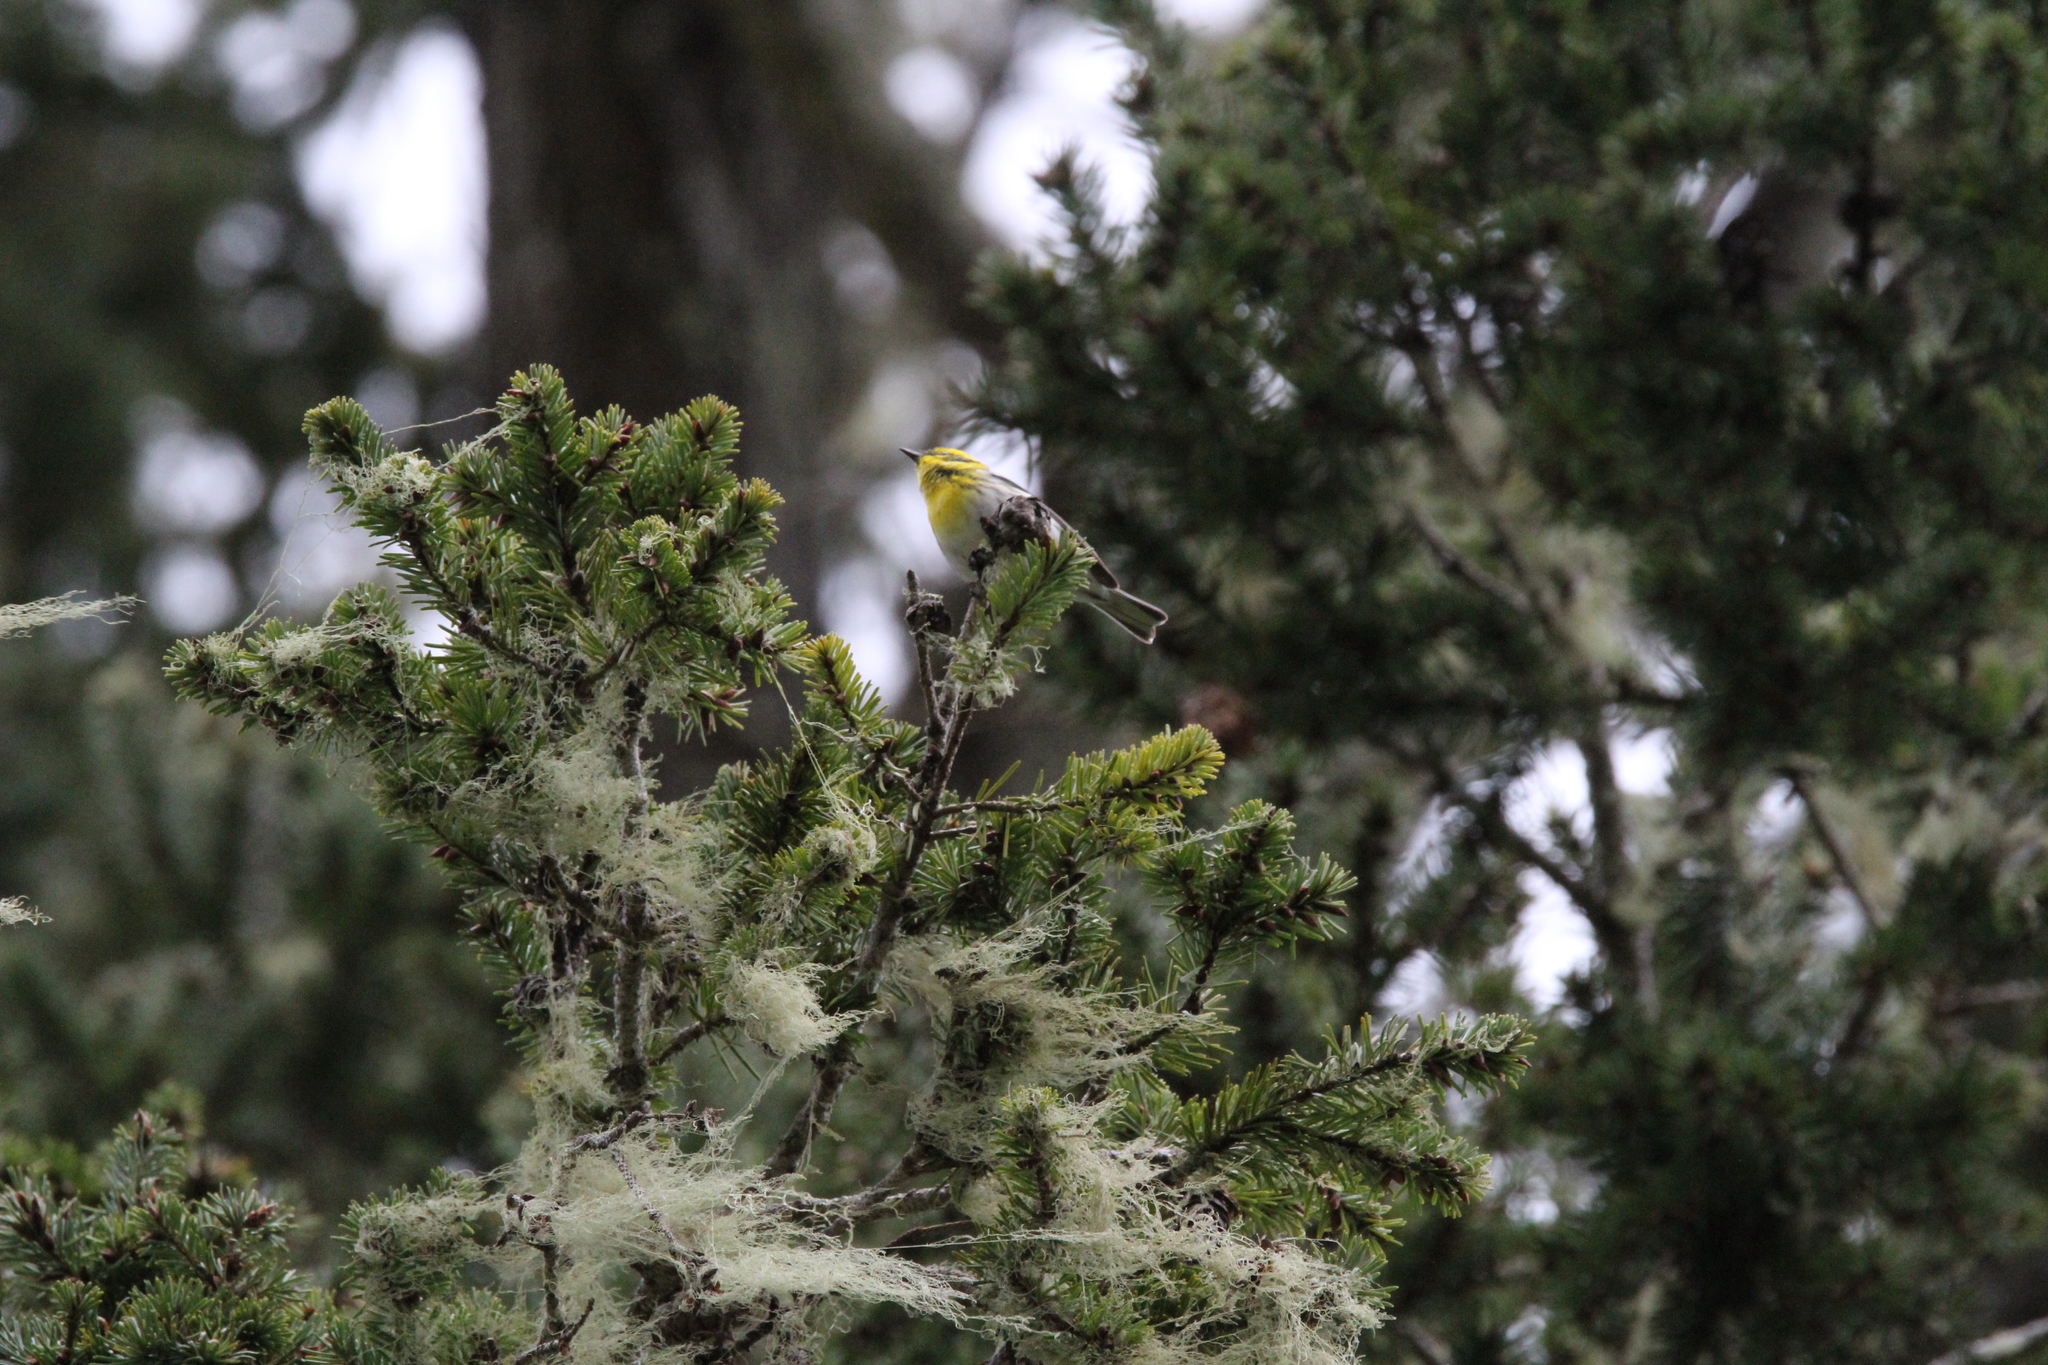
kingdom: Animalia
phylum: Chordata
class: Aves
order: Passeriformes
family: Parulidae
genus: Setophaga
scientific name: Setophaga townsendi
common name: Townsend's warbler
